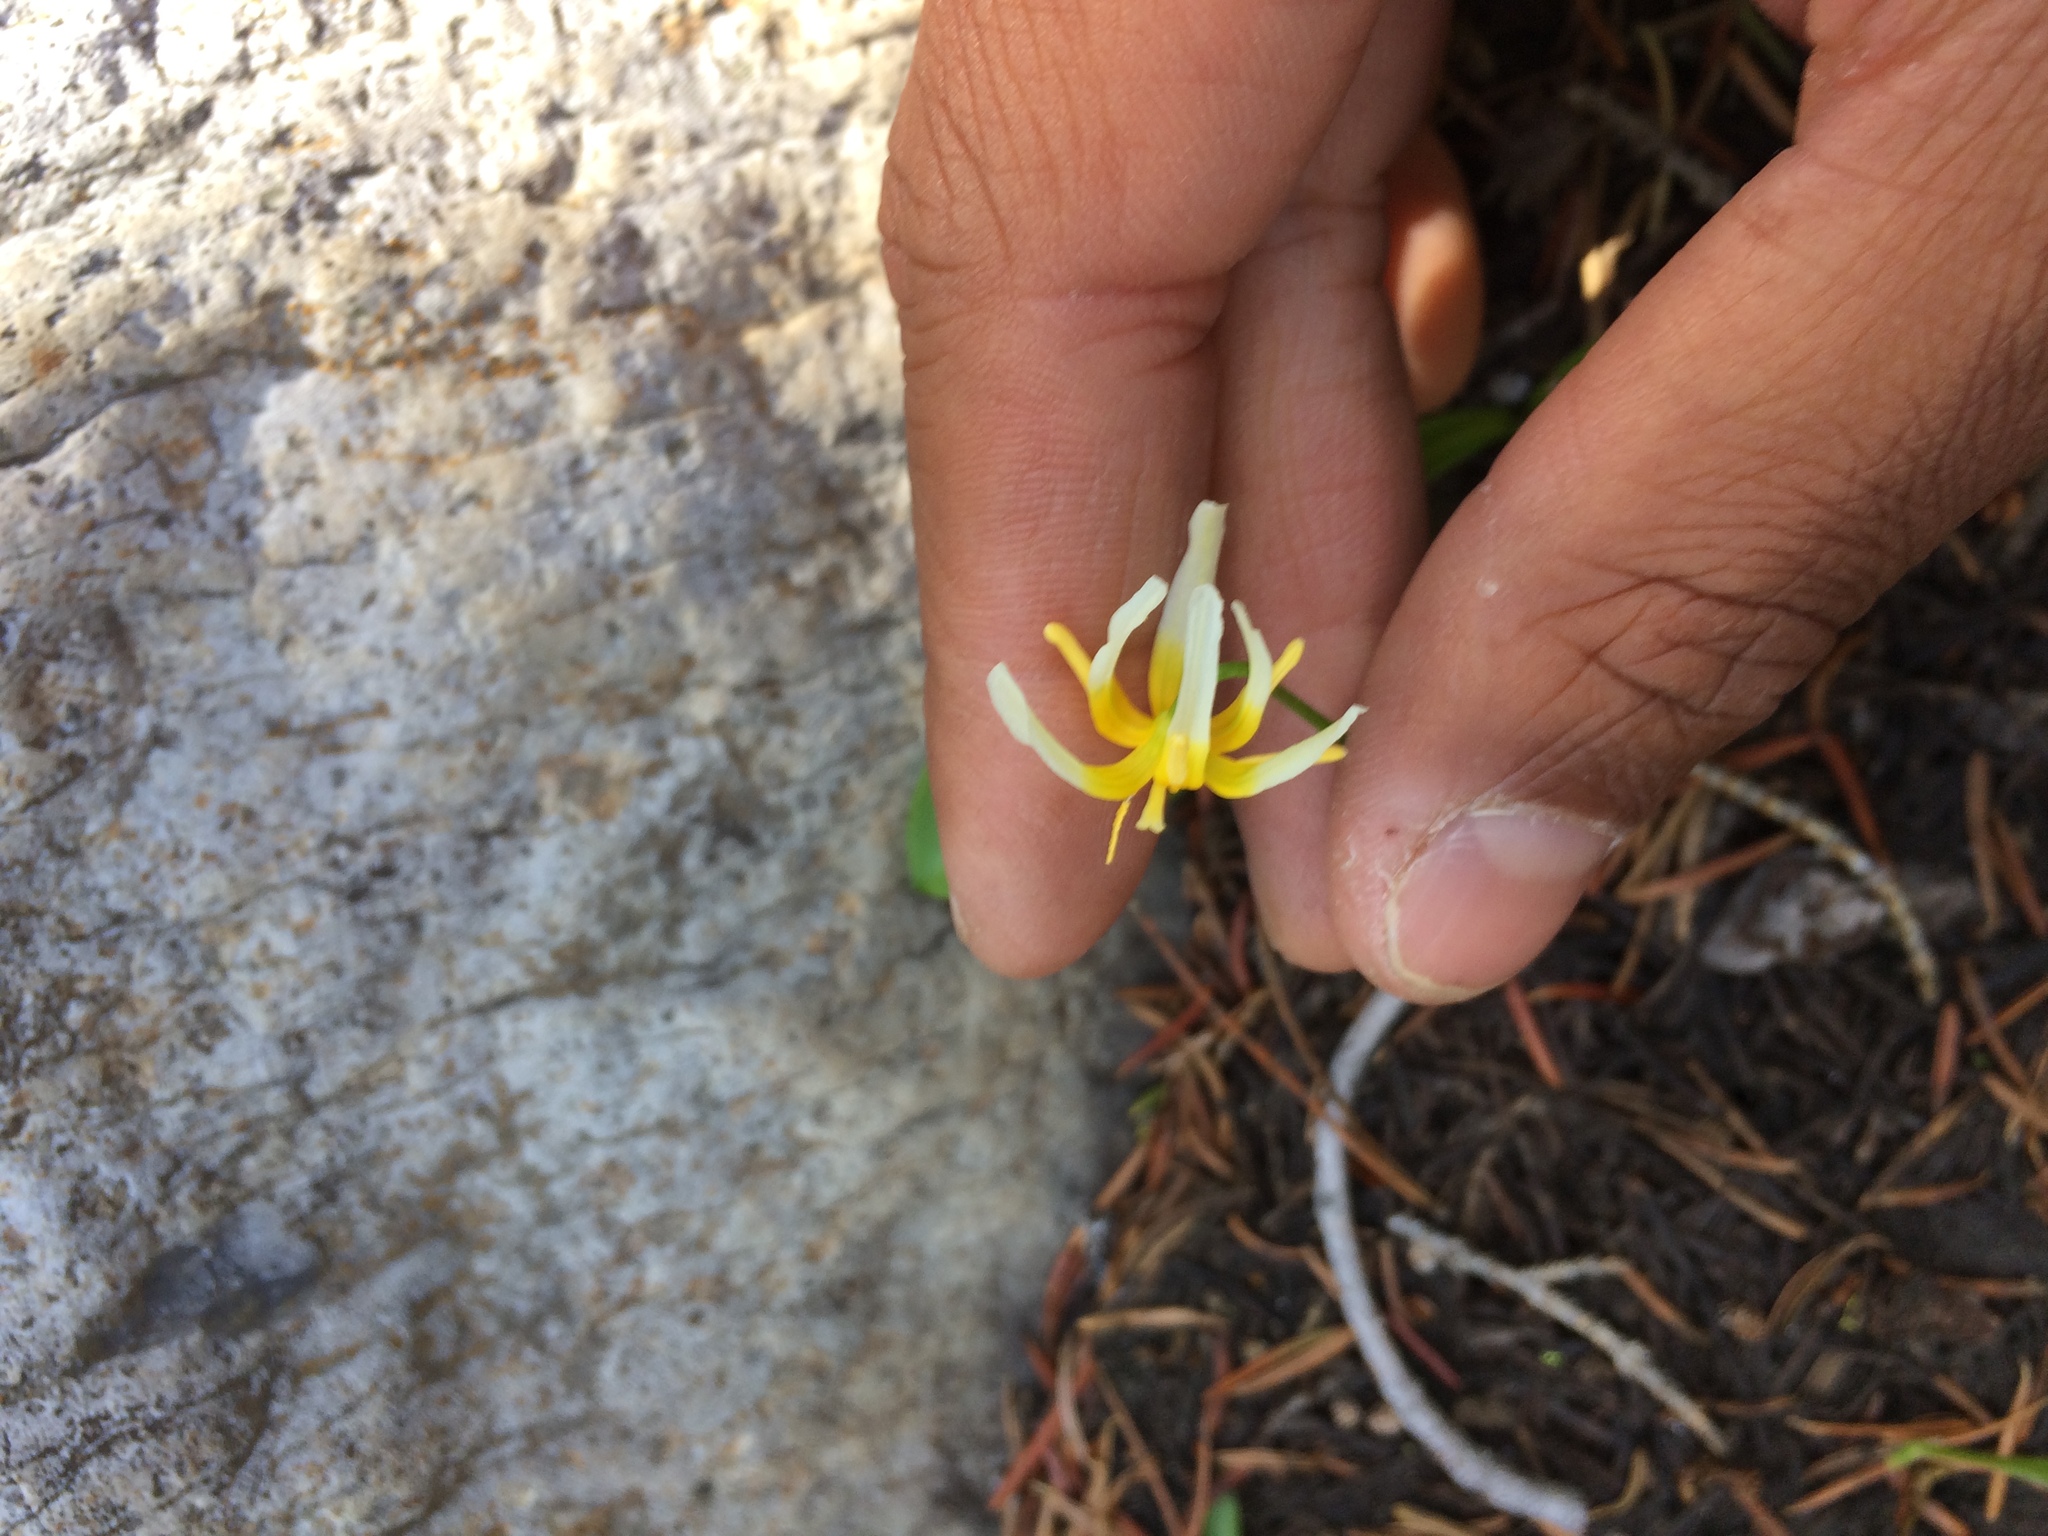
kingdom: Plantae
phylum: Tracheophyta
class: Liliopsida
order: Liliales
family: Liliaceae
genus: Erythronium
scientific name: Erythronium purpurascens
